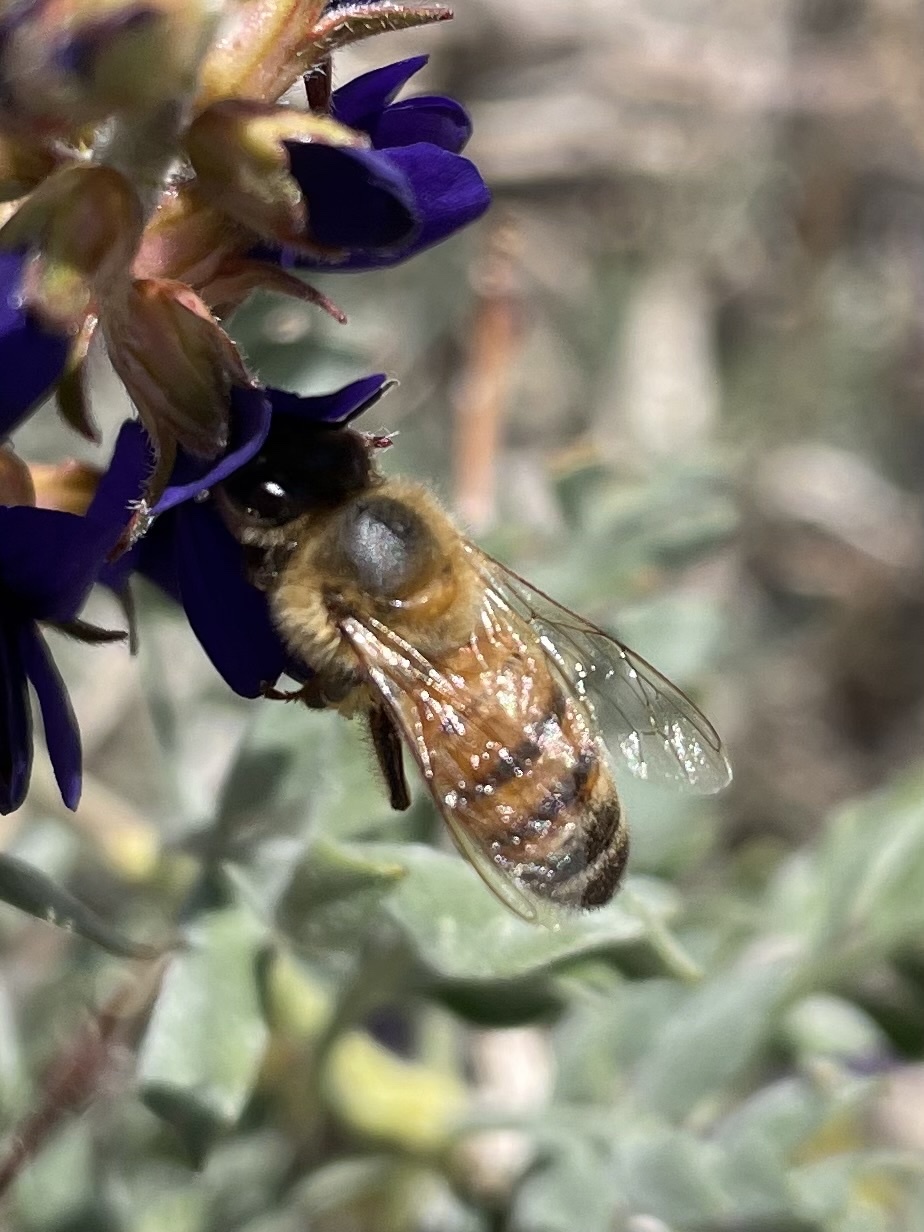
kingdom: Animalia
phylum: Arthropoda
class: Insecta
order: Hymenoptera
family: Apidae
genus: Apis
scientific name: Apis mellifera
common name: Honey bee
